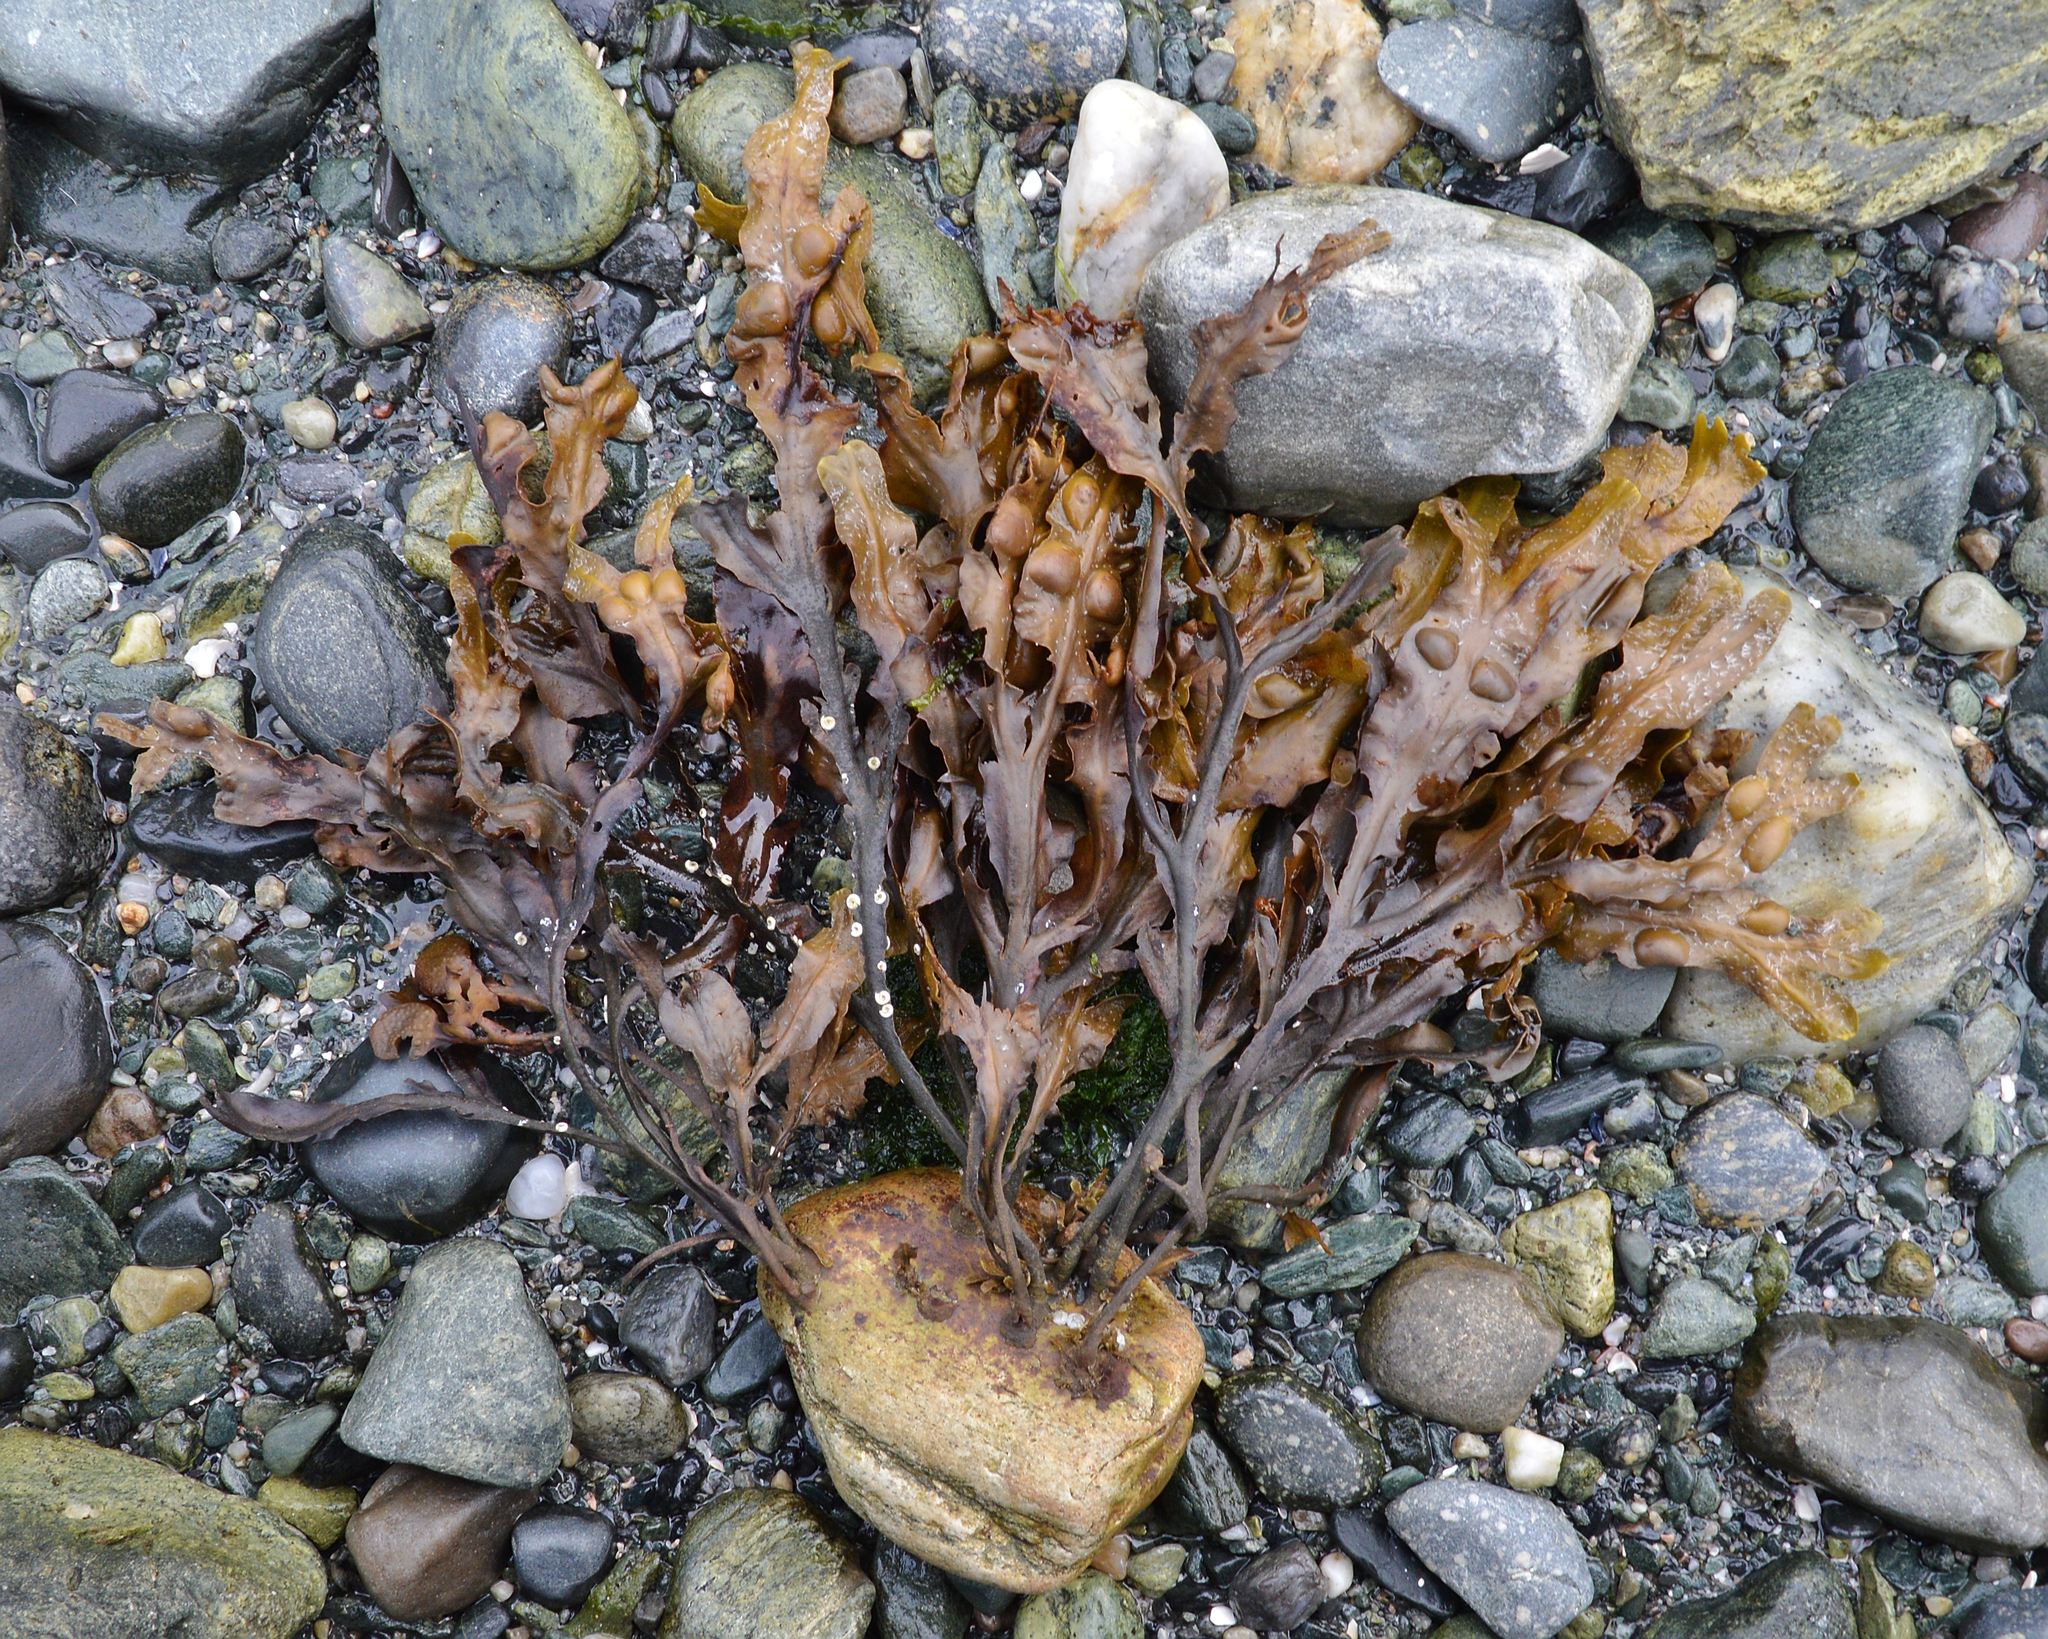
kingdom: Chromista
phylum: Ochrophyta
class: Phaeophyceae
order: Fucales
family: Fucaceae
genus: Fucus
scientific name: Fucus vesiculosus
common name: Bladder wrack
